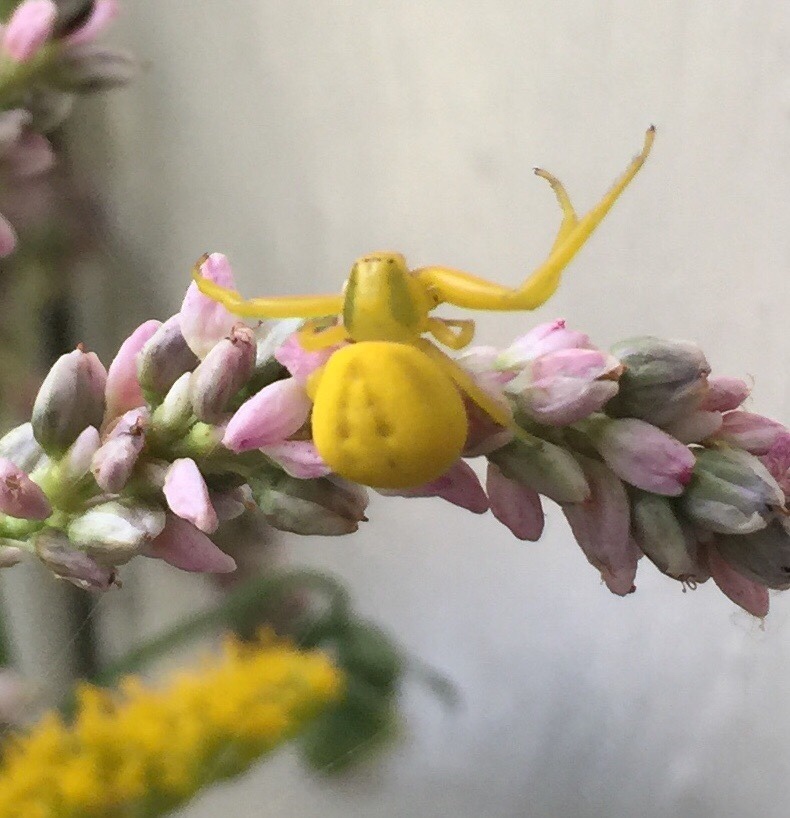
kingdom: Animalia
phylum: Arthropoda
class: Arachnida
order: Araneae
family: Thomisidae
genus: Misumenoides
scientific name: Misumenoides formosipes
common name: White-banded crab spider
